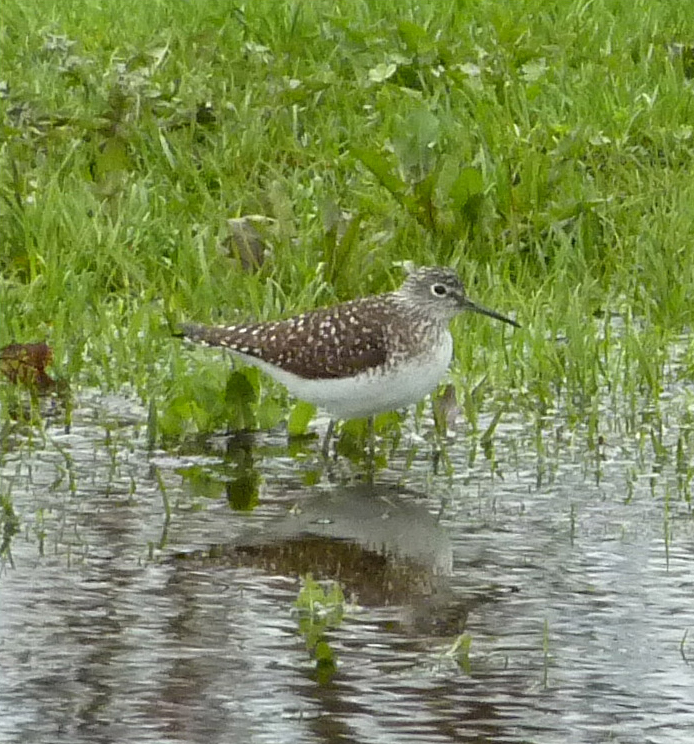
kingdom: Animalia
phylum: Chordata
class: Aves
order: Charadriiformes
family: Scolopacidae
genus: Tringa
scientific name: Tringa solitaria
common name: Solitary sandpiper
